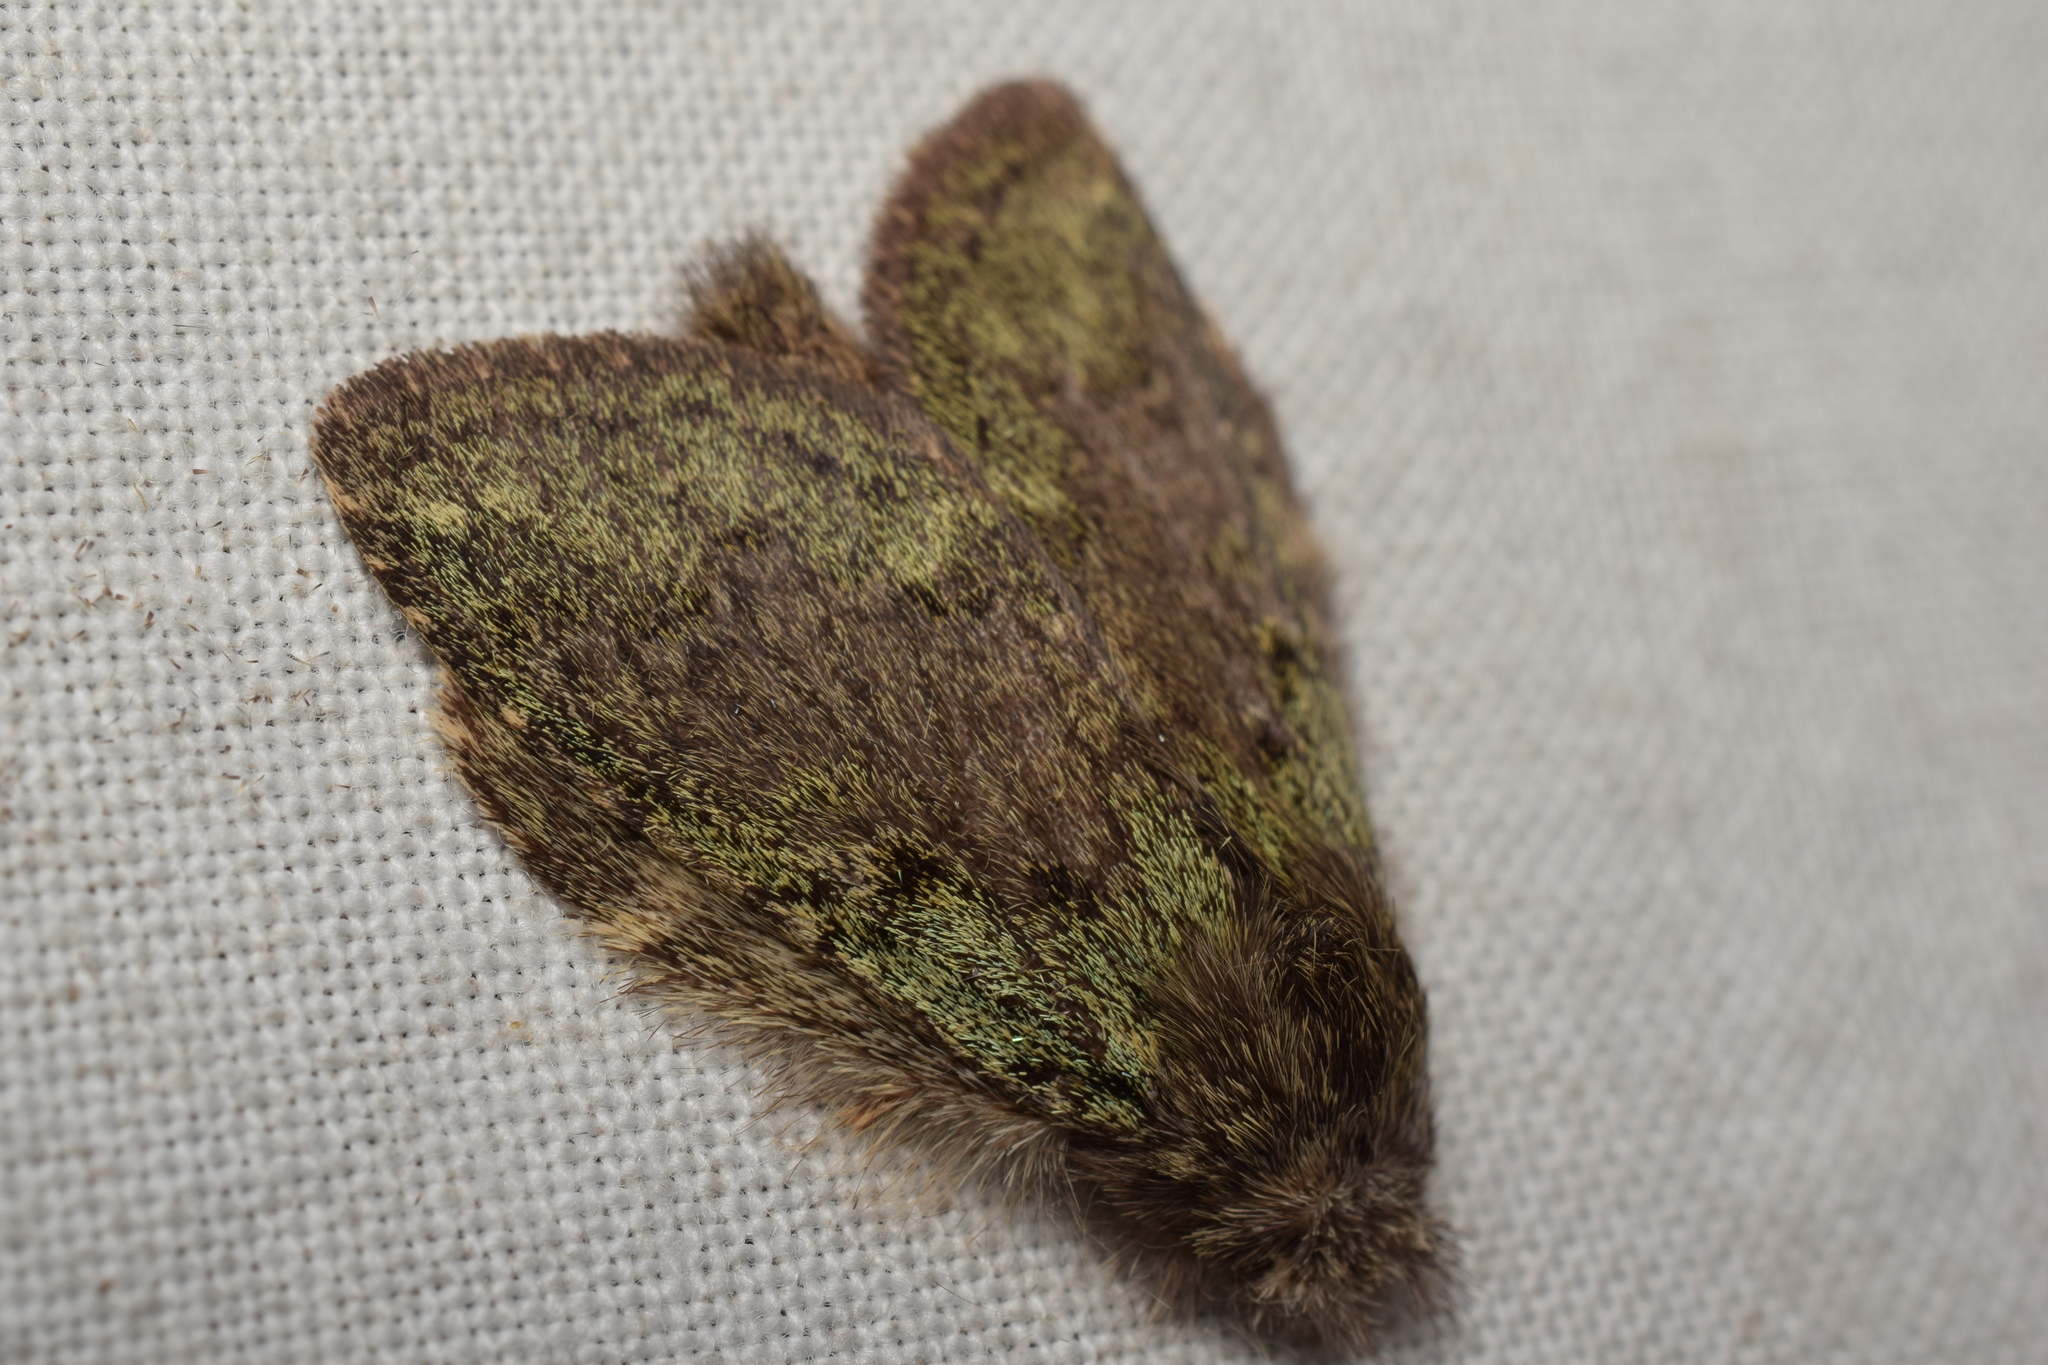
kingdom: Animalia
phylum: Arthropoda
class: Insecta
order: Lepidoptera
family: Notodontidae
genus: Syntypistis
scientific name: Syntypistis cyanea
